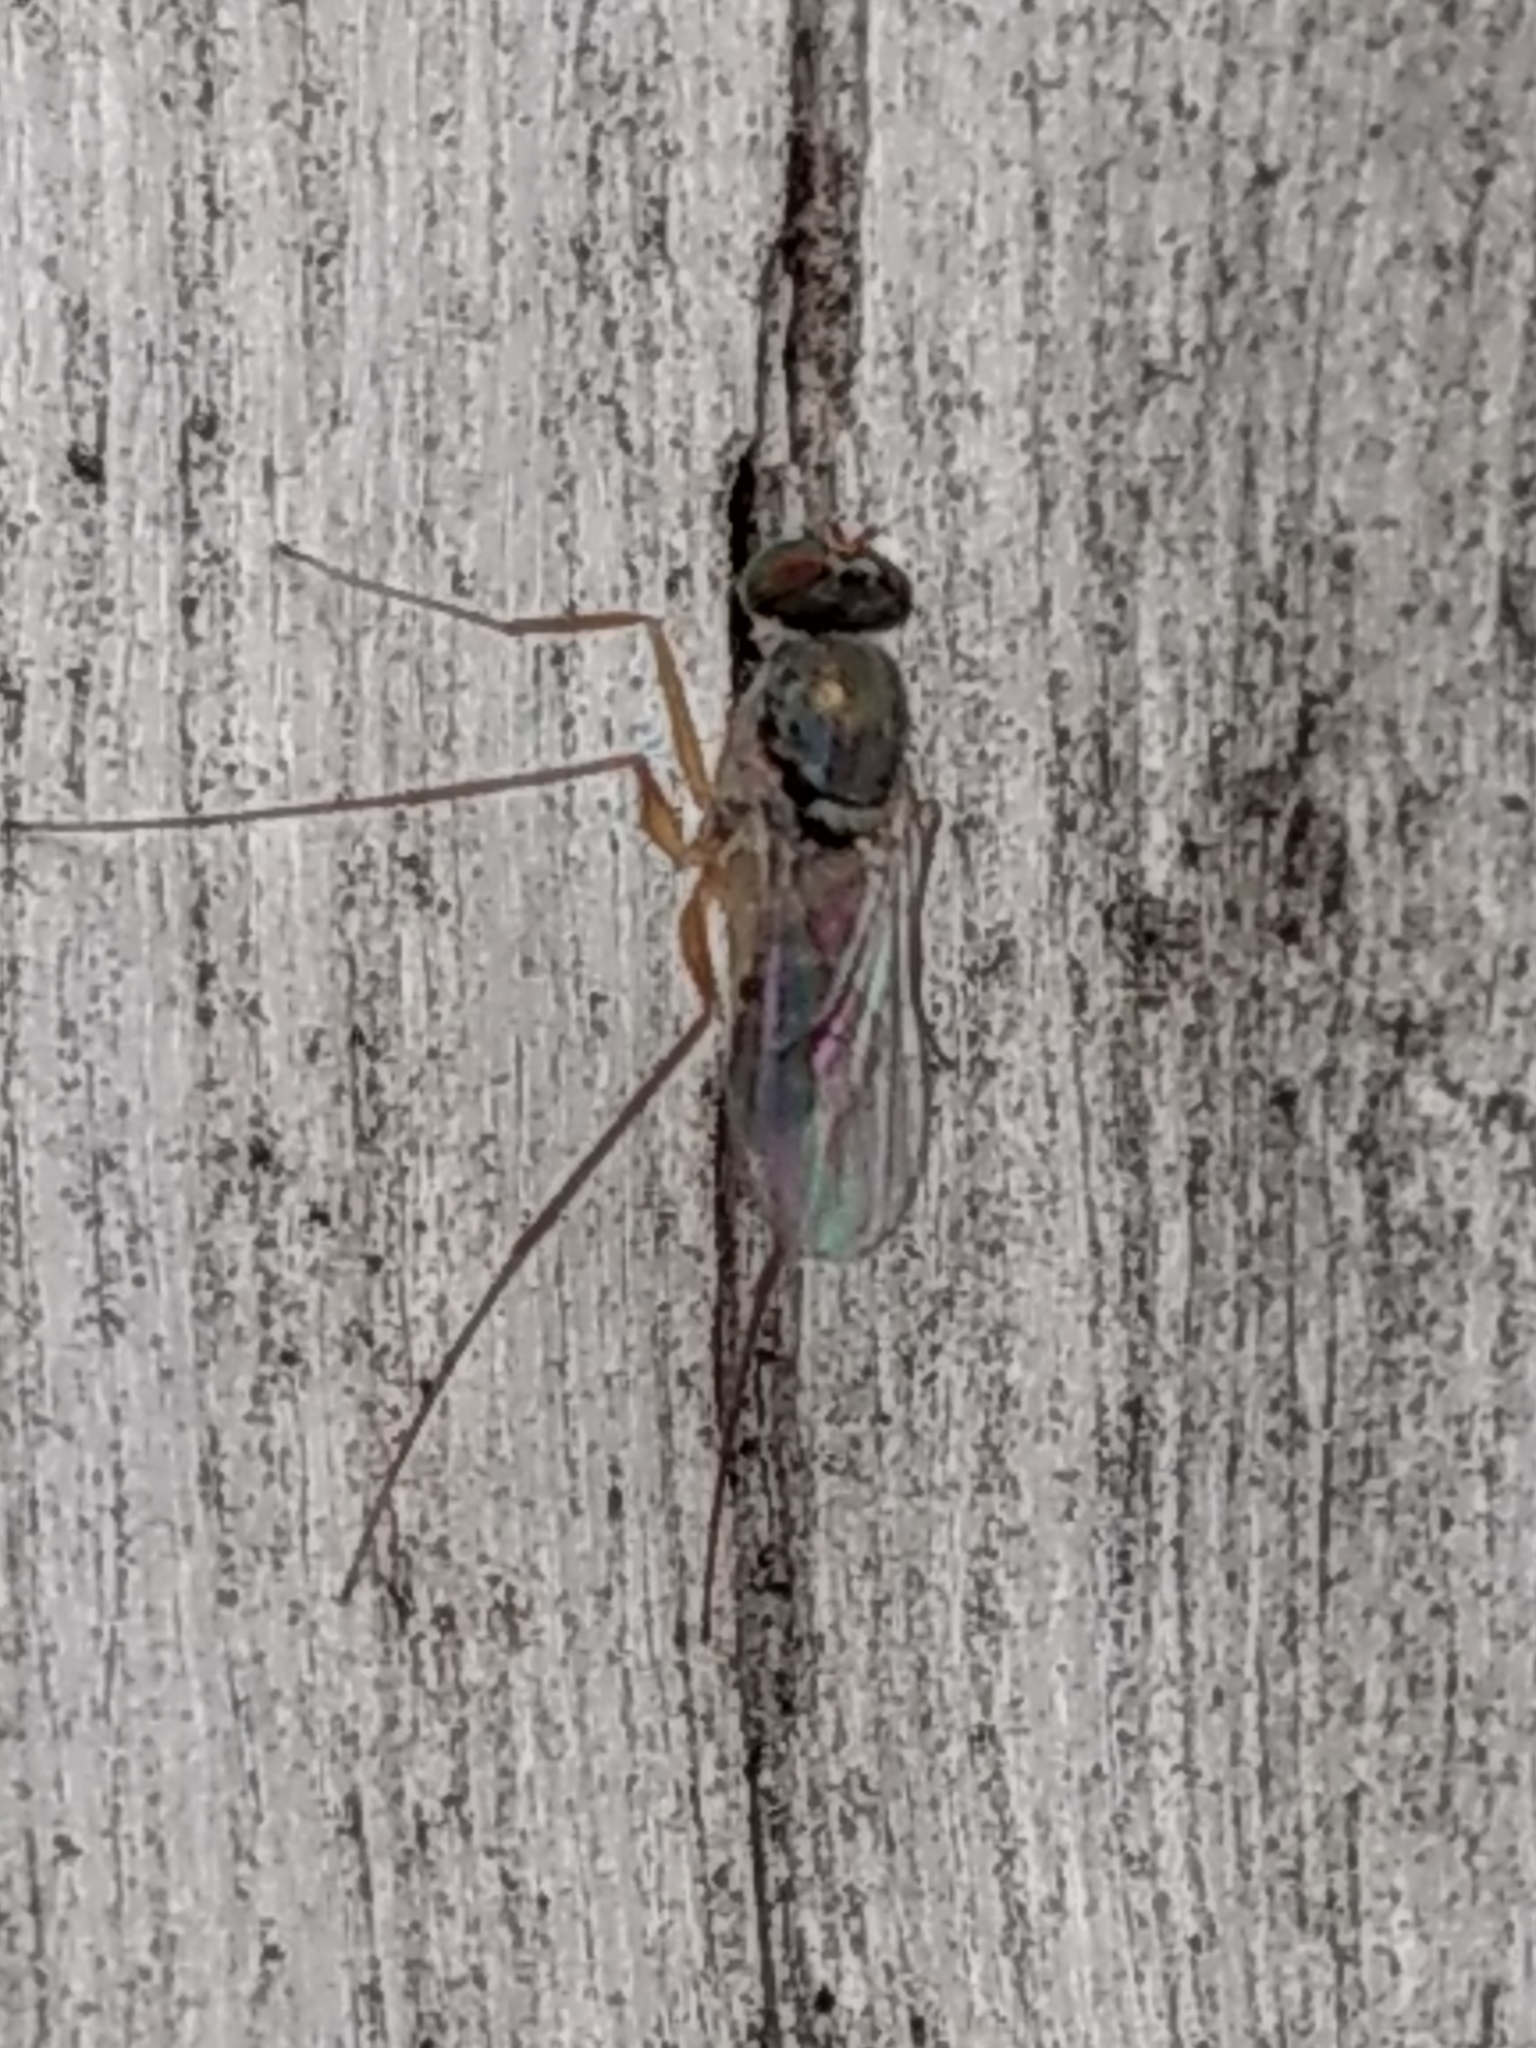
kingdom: Animalia
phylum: Arthropoda
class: Insecta
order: Diptera
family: Dolichopodidae
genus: Dactylomyia
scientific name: Dactylomyia lateralis
